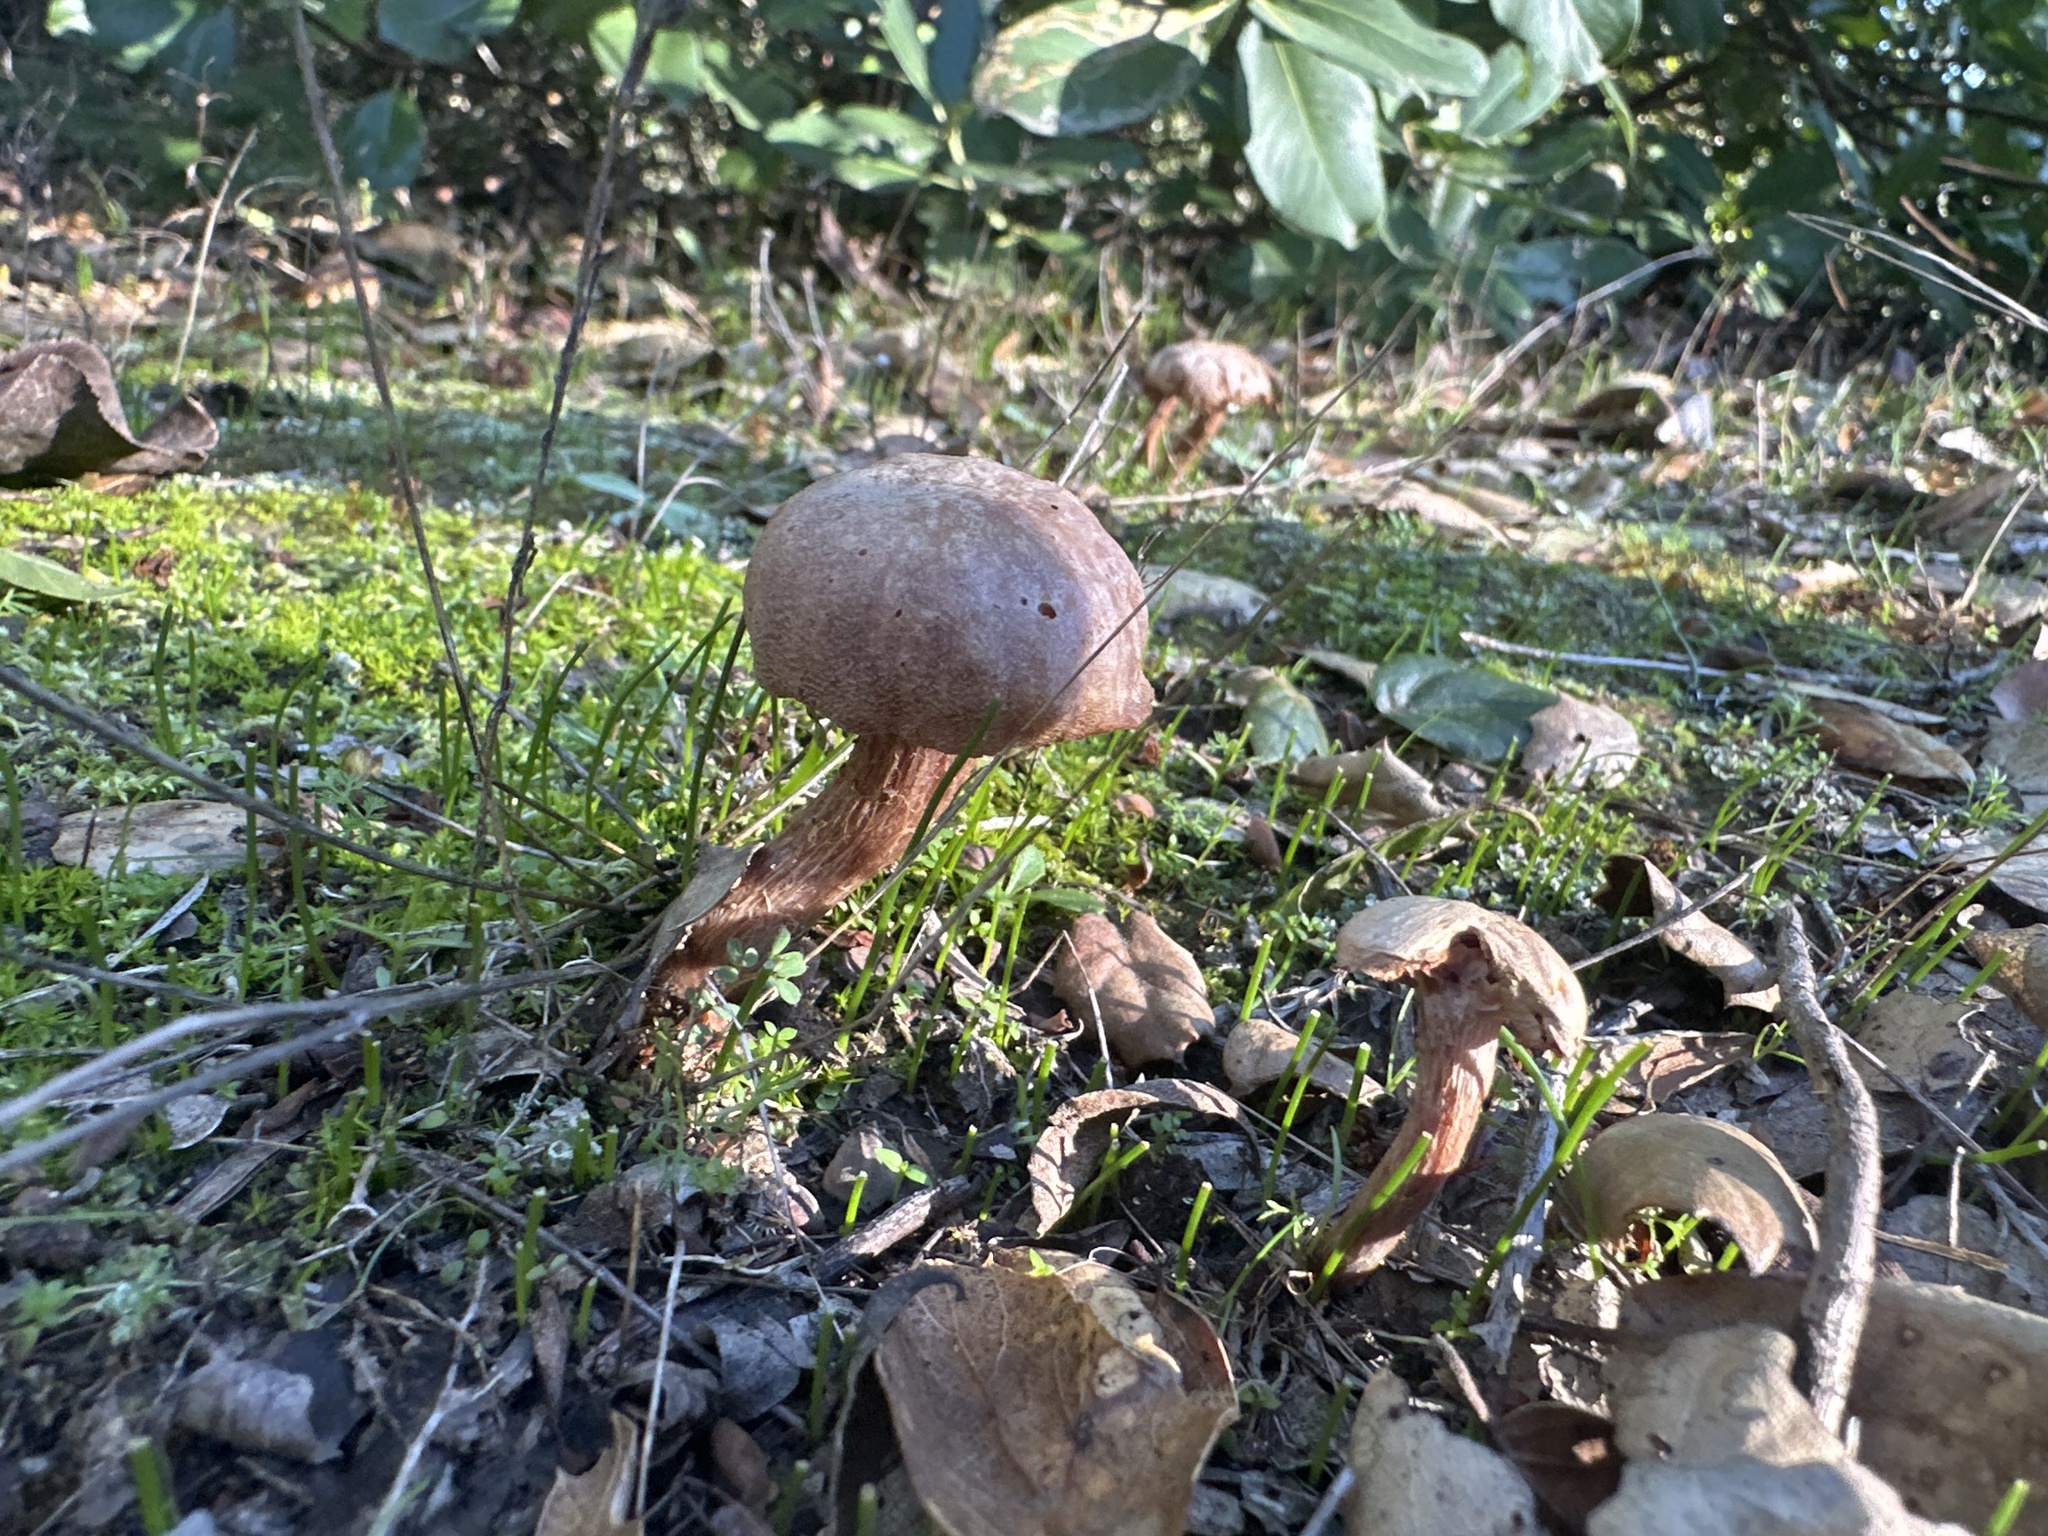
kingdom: Fungi
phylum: Basidiomycota
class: Agaricomycetes
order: Agaricales
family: Hydnangiaceae
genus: Laccaria
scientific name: Laccaria amethysteo-occidentalis
